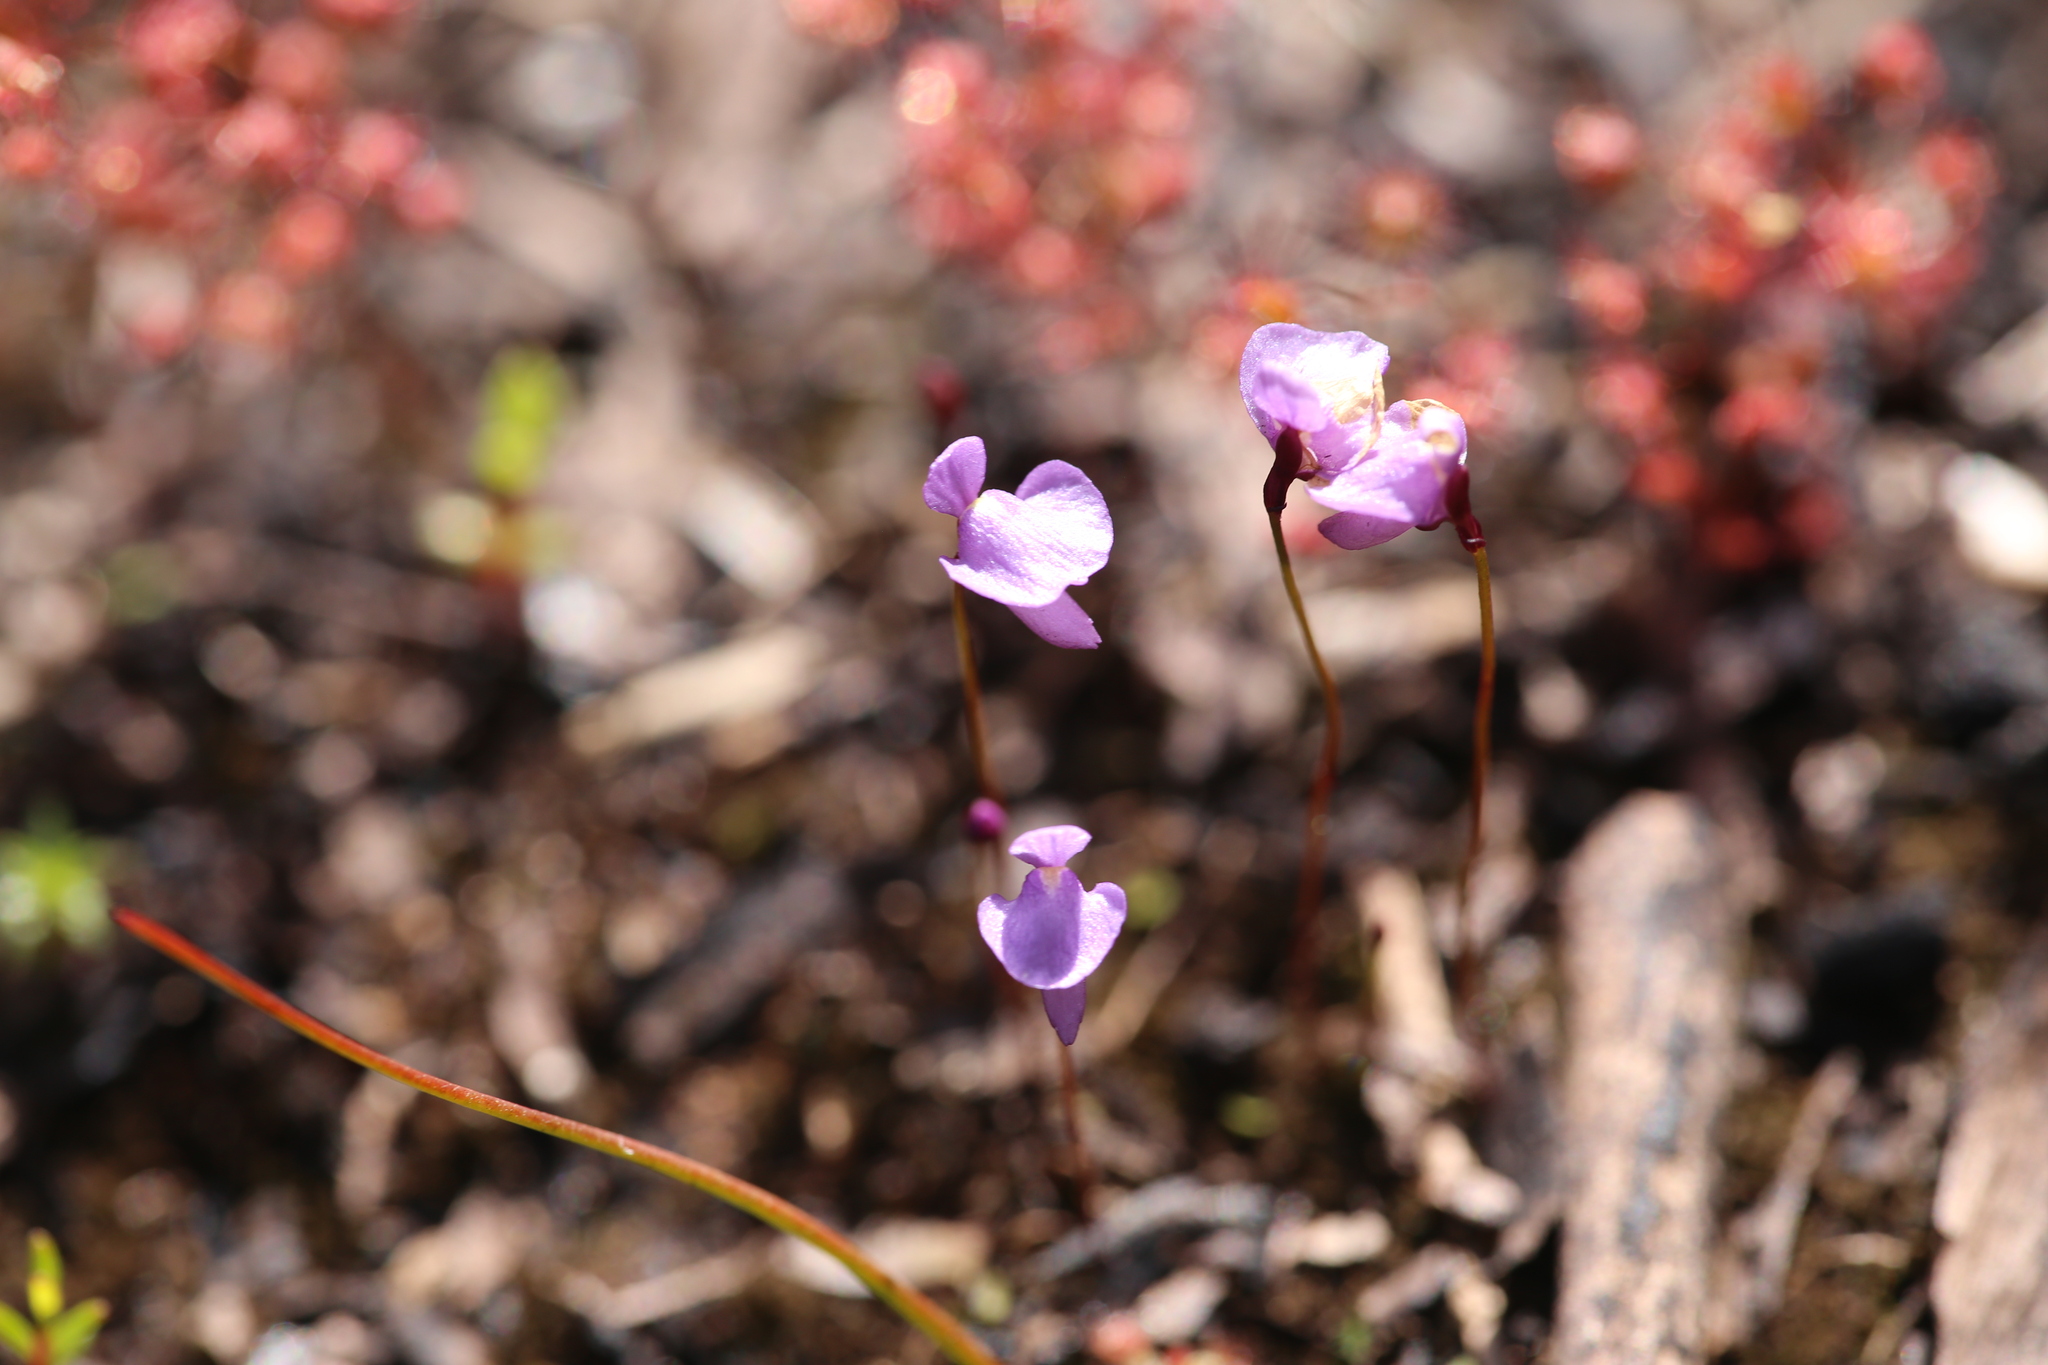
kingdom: Plantae
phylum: Tracheophyta
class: Magnoliopsida
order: Lamiales
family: Lentibulariaceae
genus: Utricularia
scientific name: Utricularia simplex
